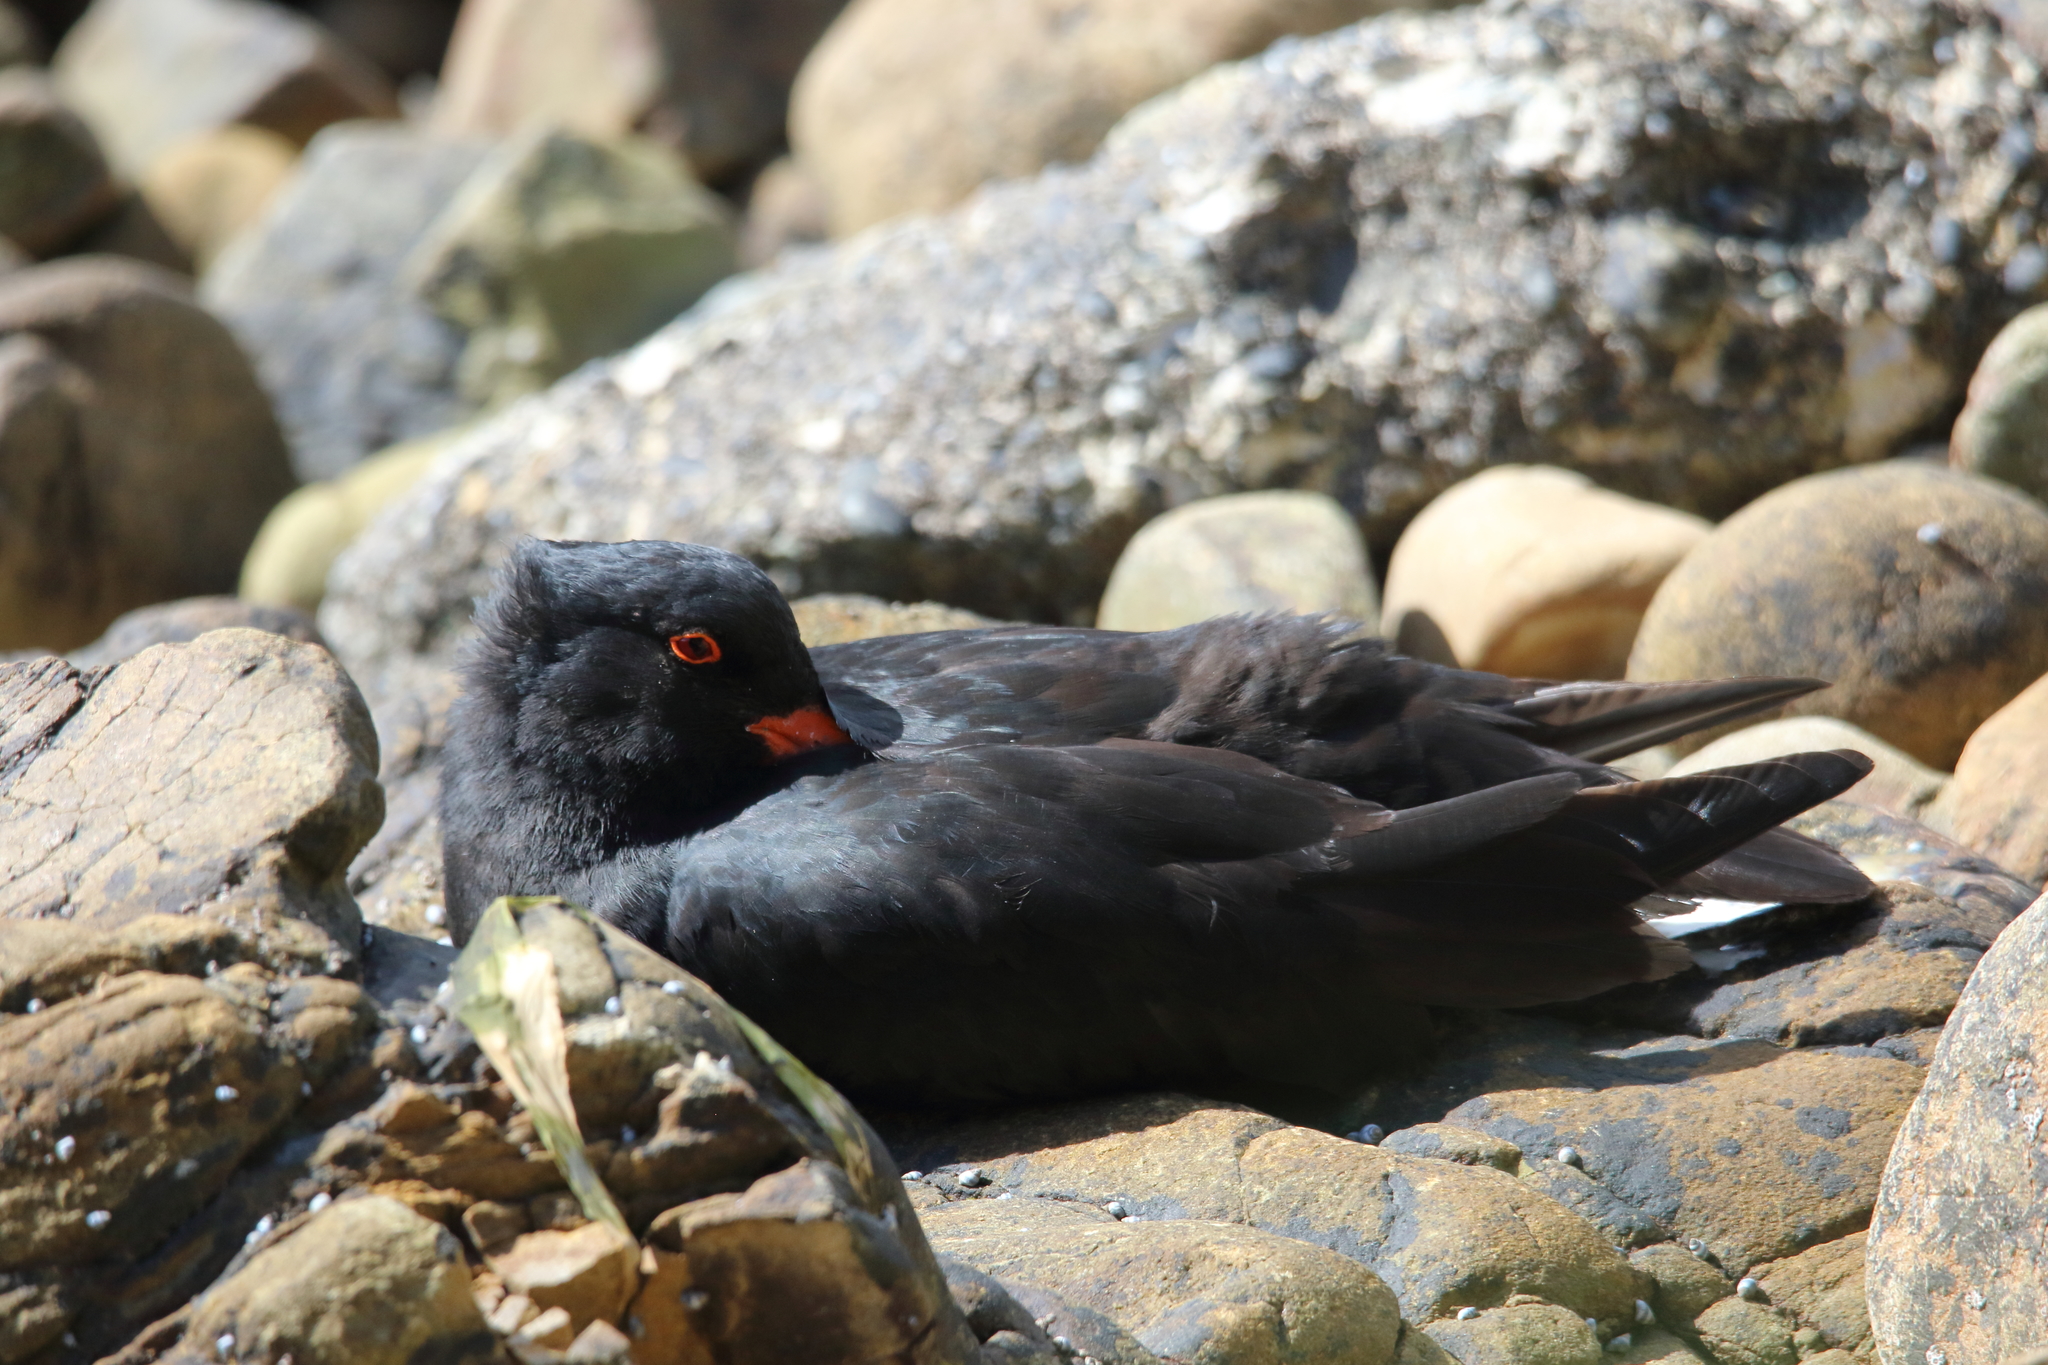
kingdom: Animalia
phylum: Chordata
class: Aves
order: Charadriiformes
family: Haematopodidae
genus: Haematopus
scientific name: Haematopus unicolor
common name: Variable oystercatcher
